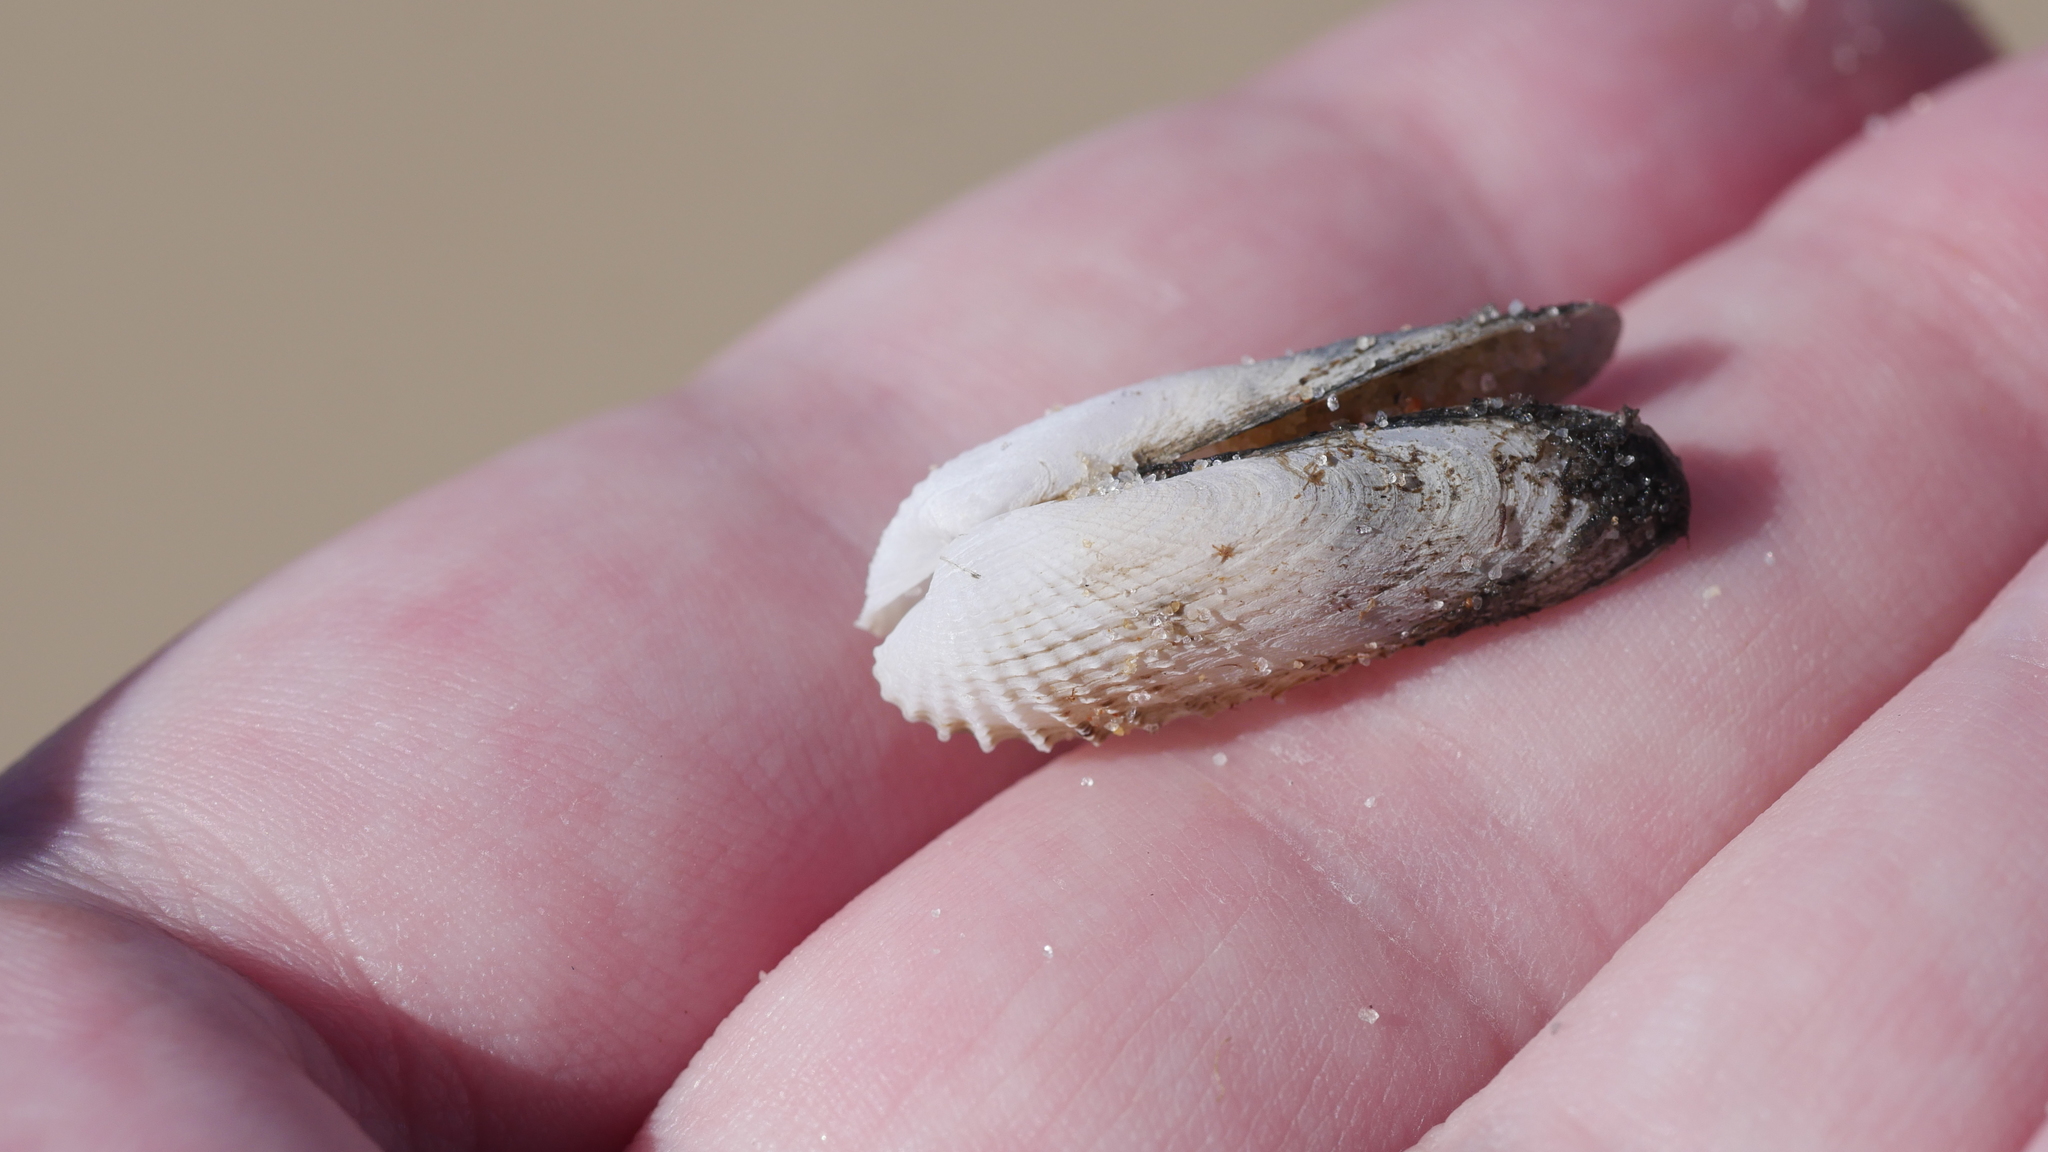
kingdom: Animalia
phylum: Mollusca
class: Bivalvia
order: Venerida
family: Veneridae
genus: Petricolaria
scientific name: Petricolaria pholadiformis
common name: American piddock
